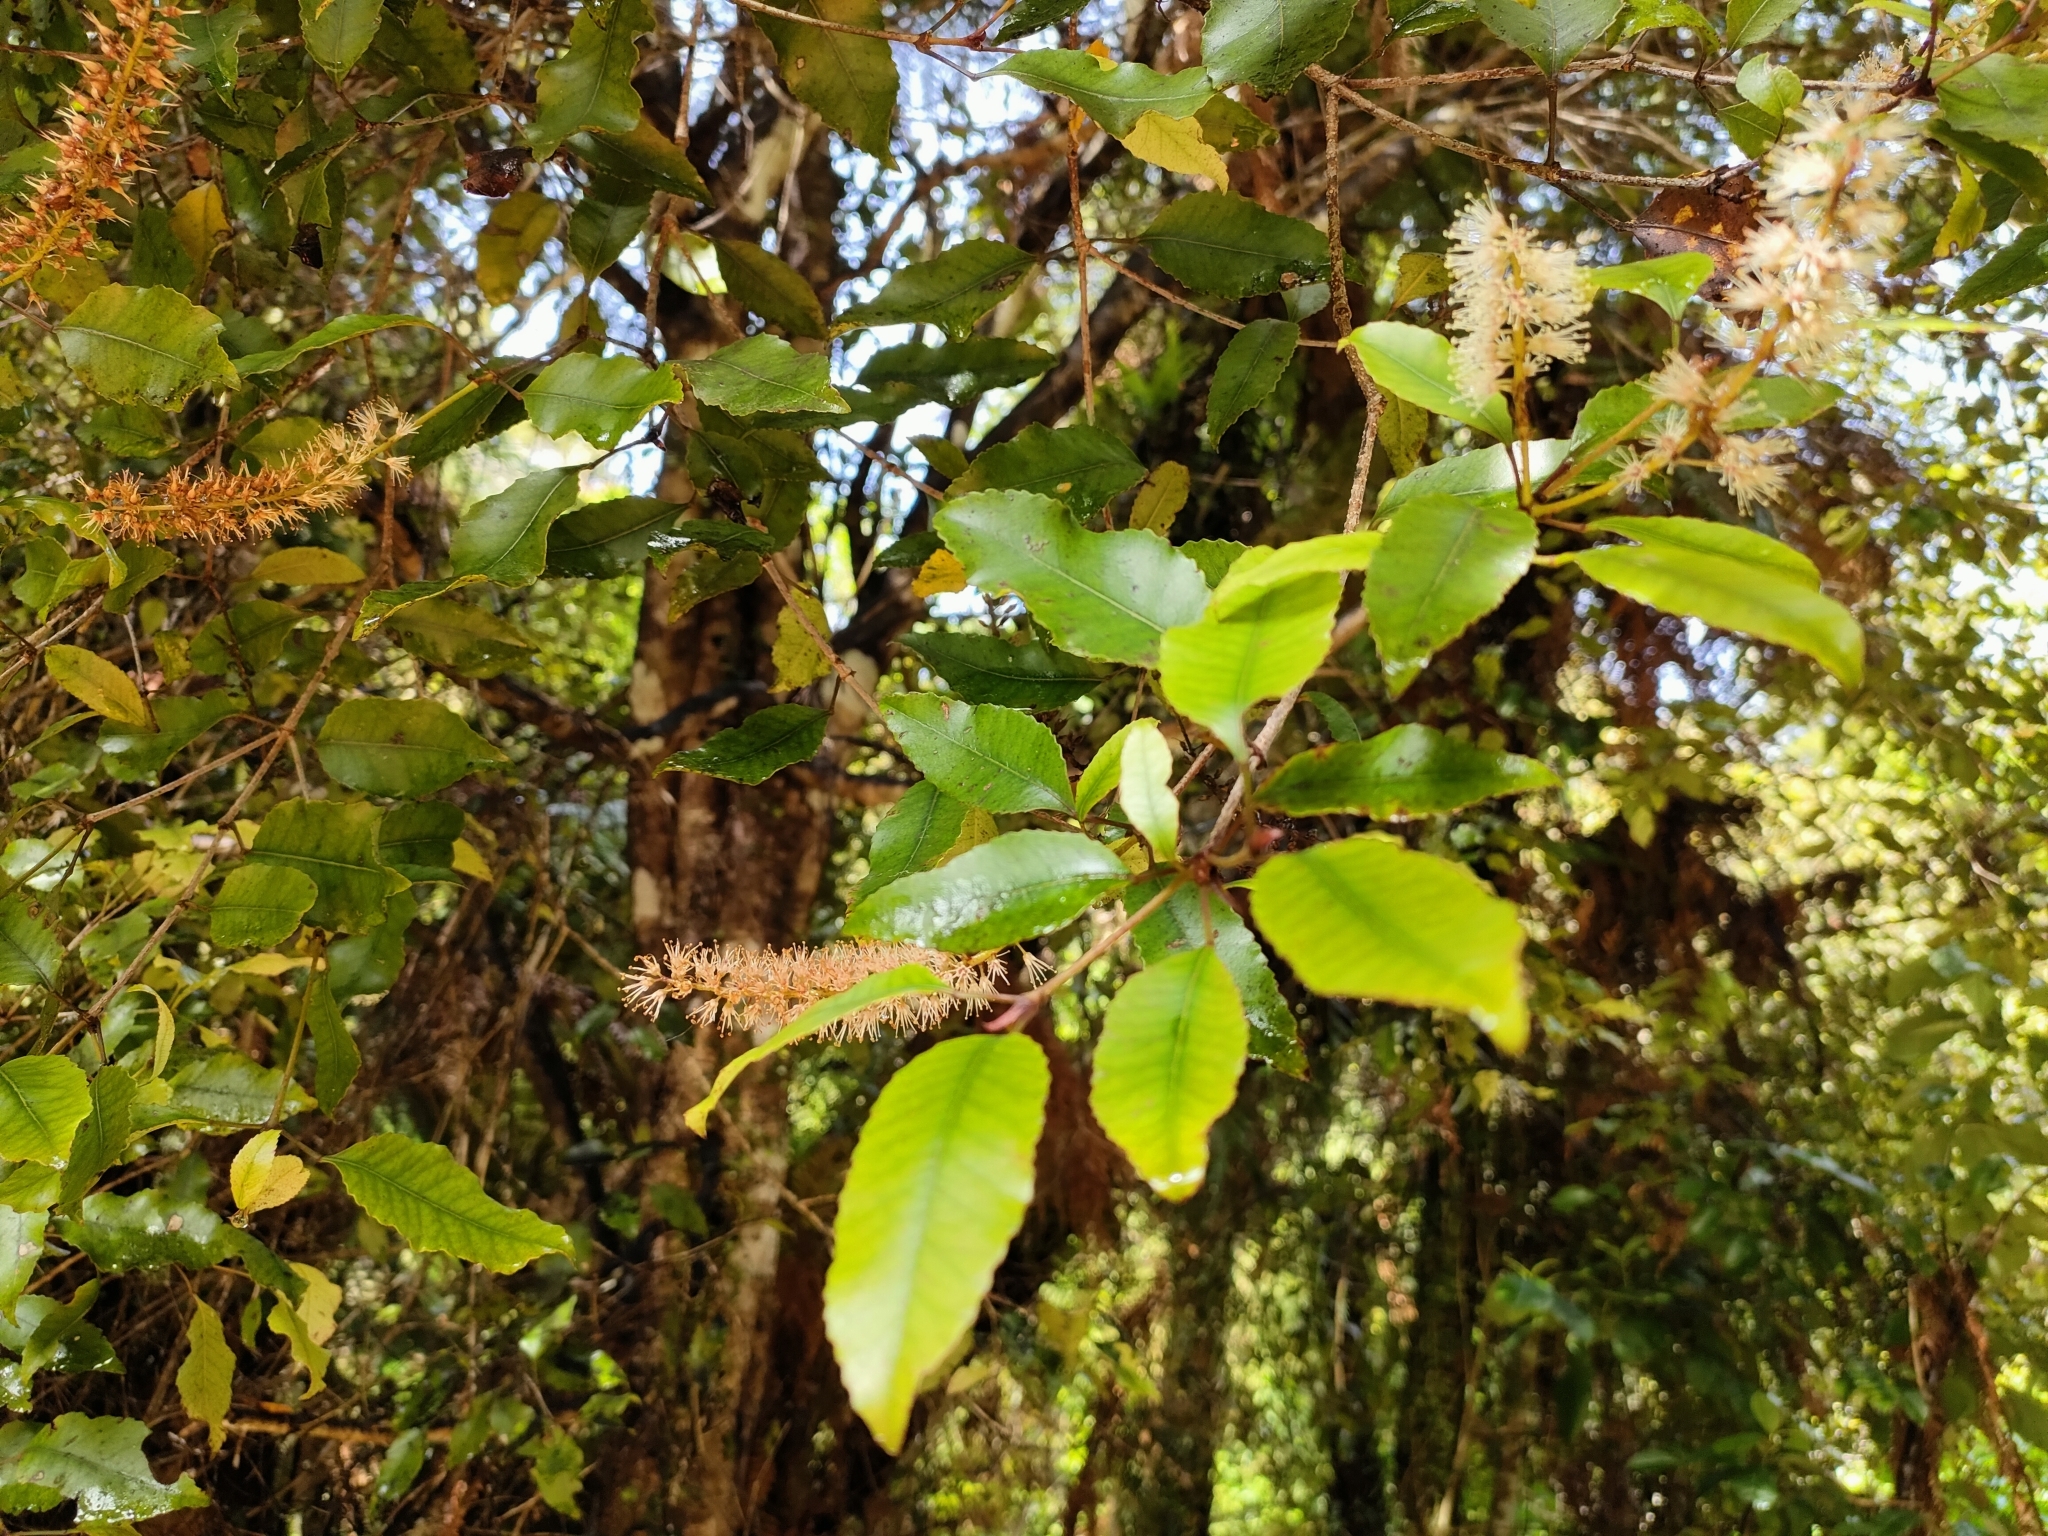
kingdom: Plantae
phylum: Tracheophyta
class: Magnoliopsida
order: Oxalidales
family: Cunoniaceae
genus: Pterophylla
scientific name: Pterophylla racemosa
